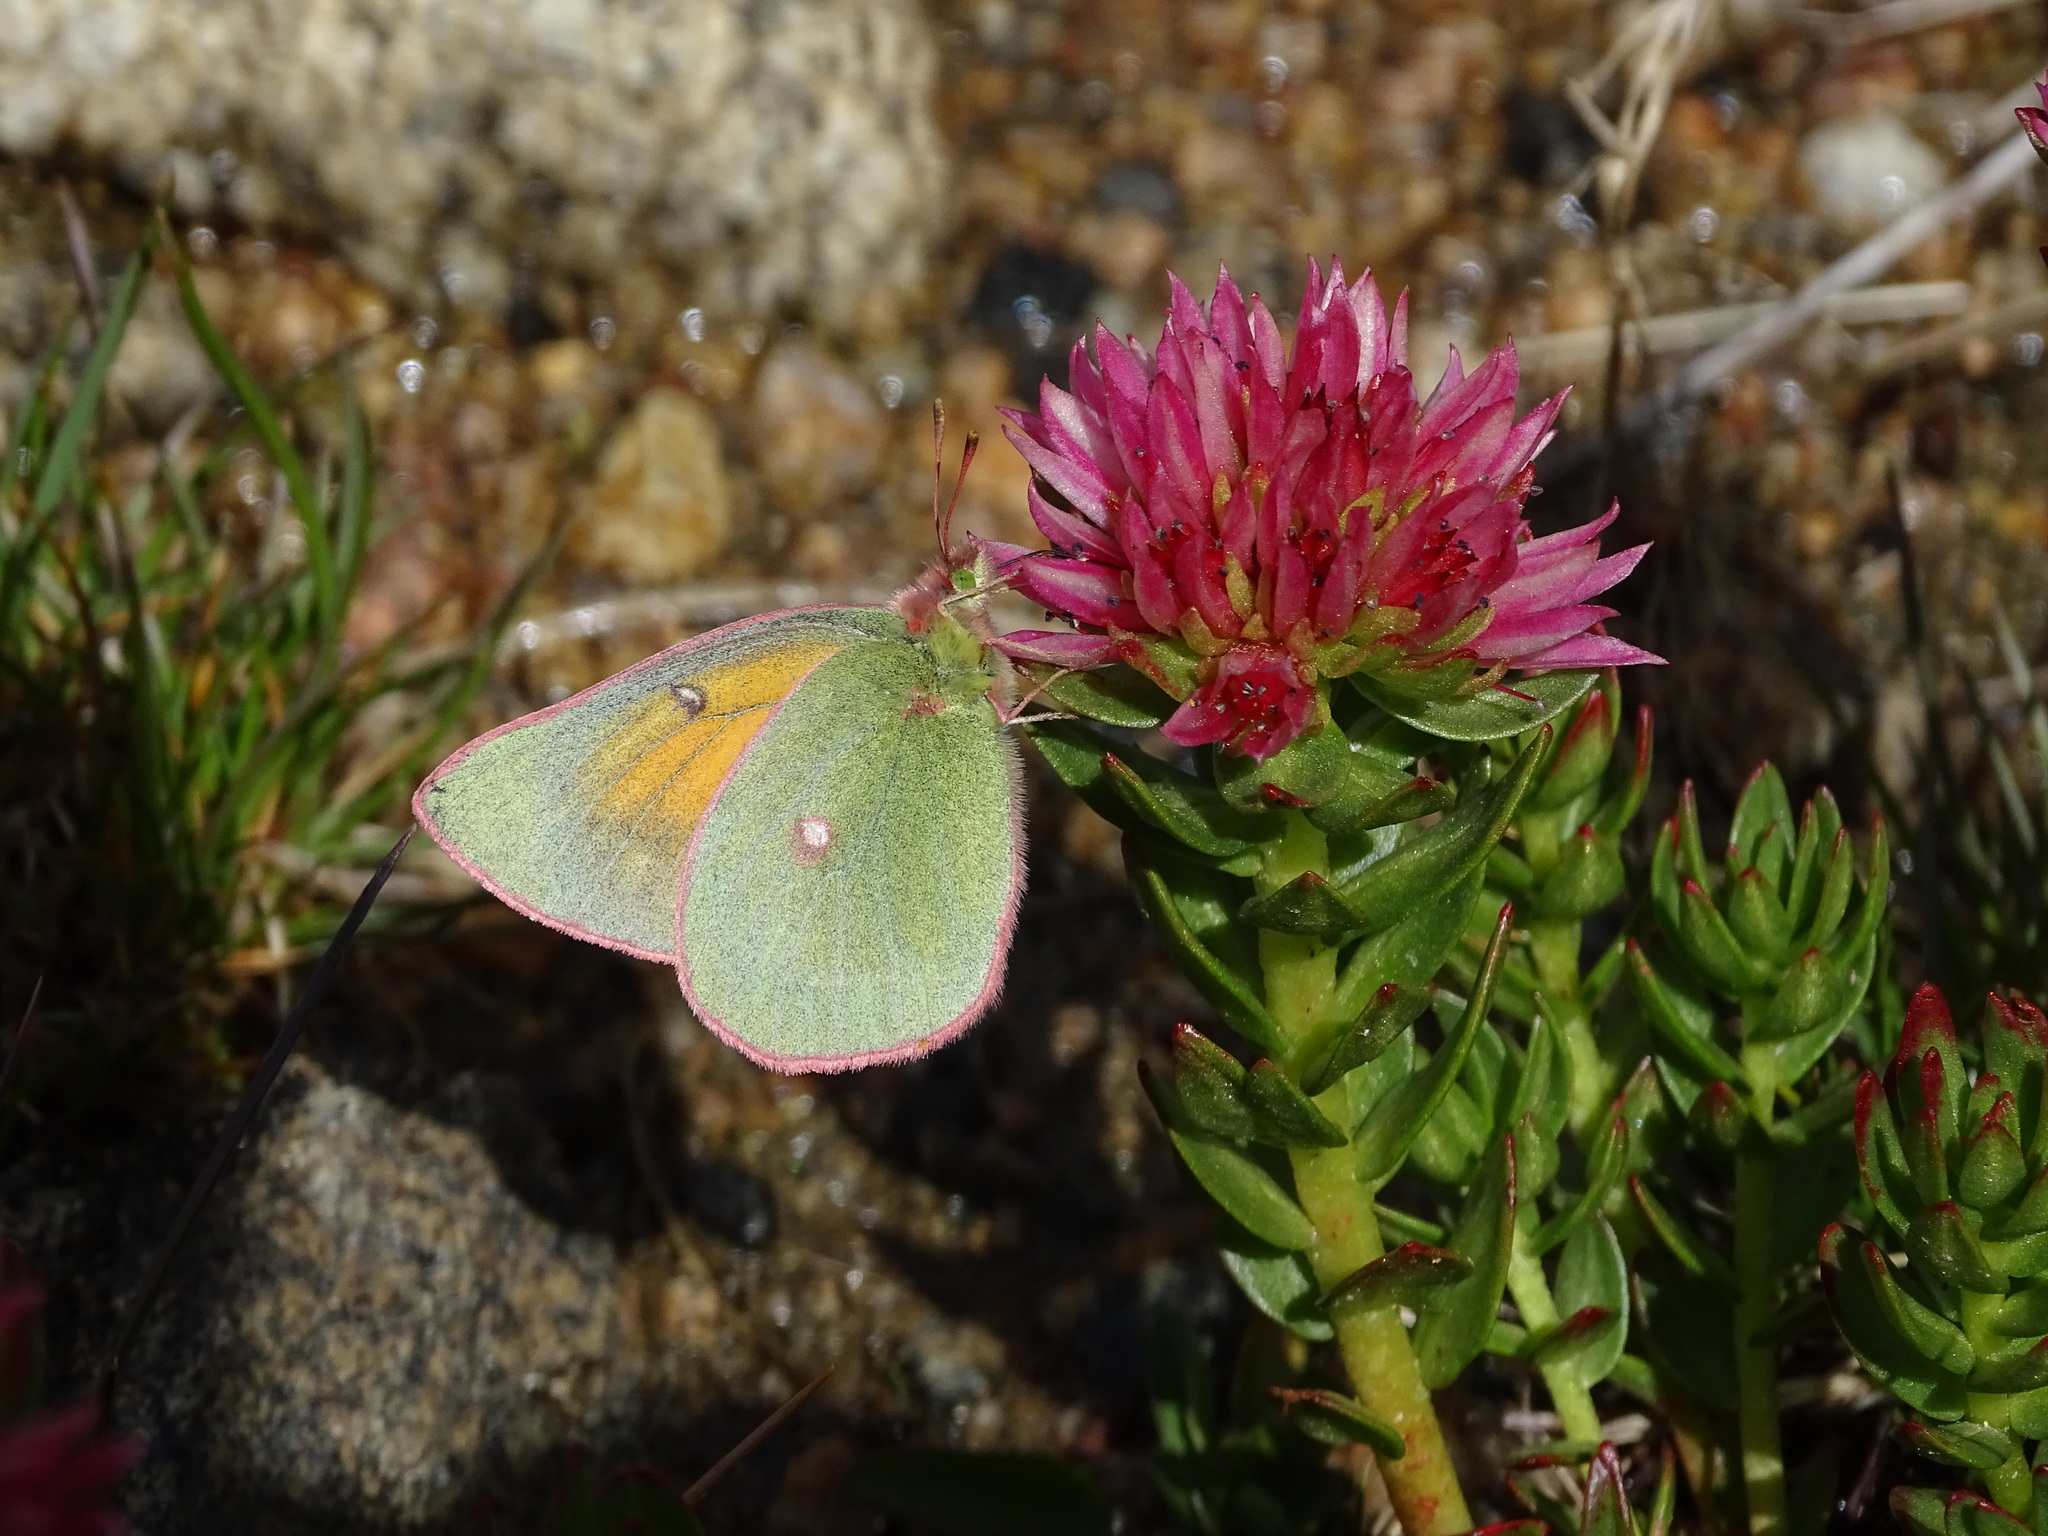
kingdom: Animalia
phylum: Arthropoda
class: Insecta
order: Lepidoptera
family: Pieridae
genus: Colias
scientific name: Colias meadii
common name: Mead's sulphur
